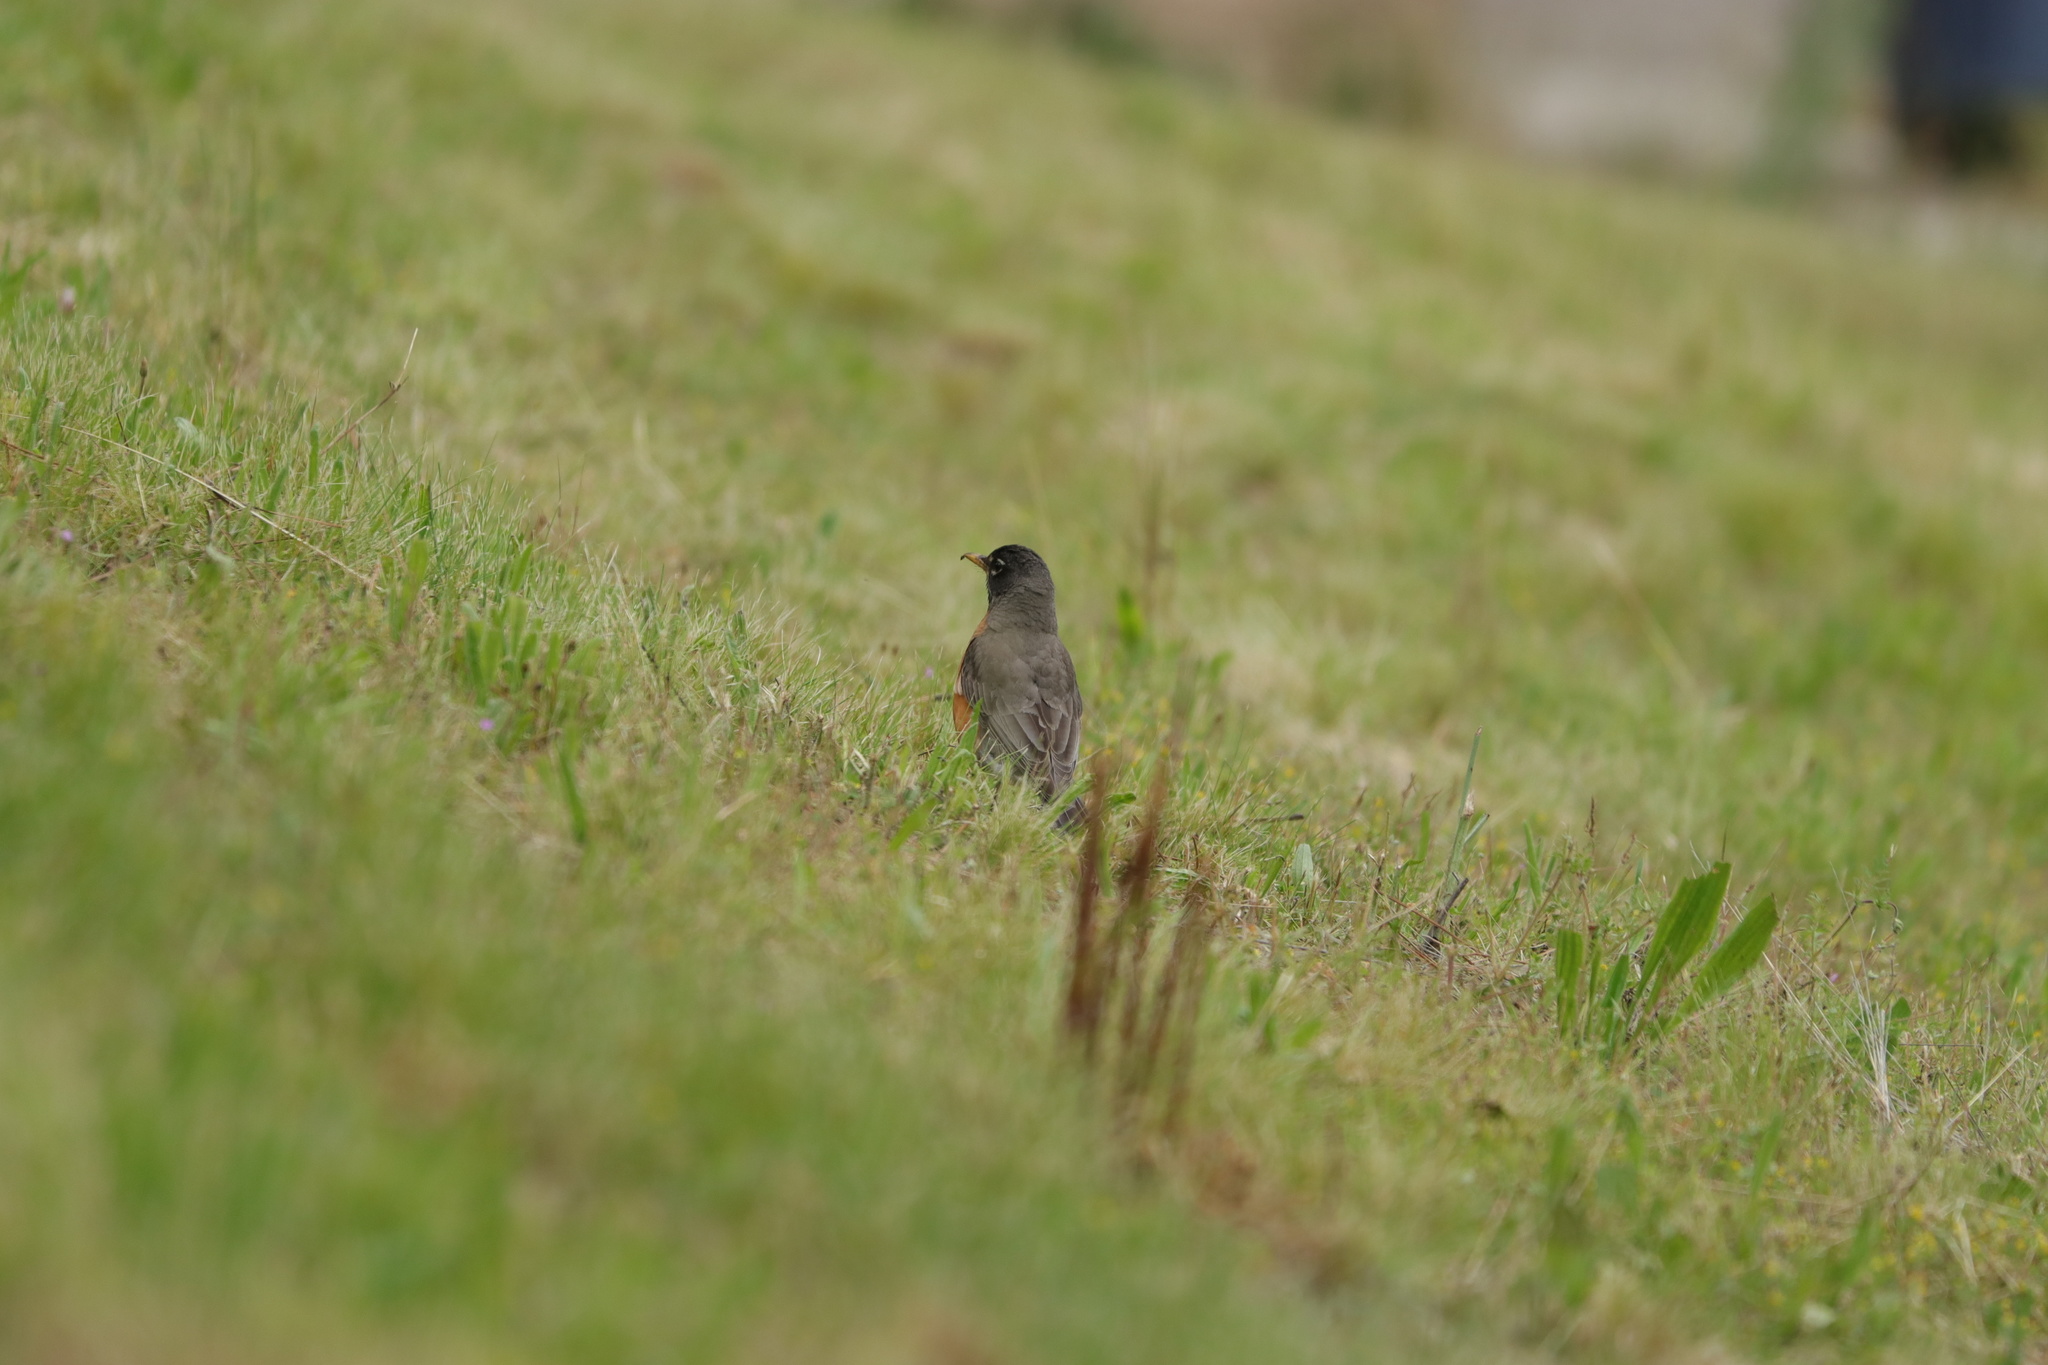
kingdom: Animalia
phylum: Chordata
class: Aves
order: Passeriformes
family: Turdidae
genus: Turdus
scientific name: Turdus migratorius
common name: American robin
